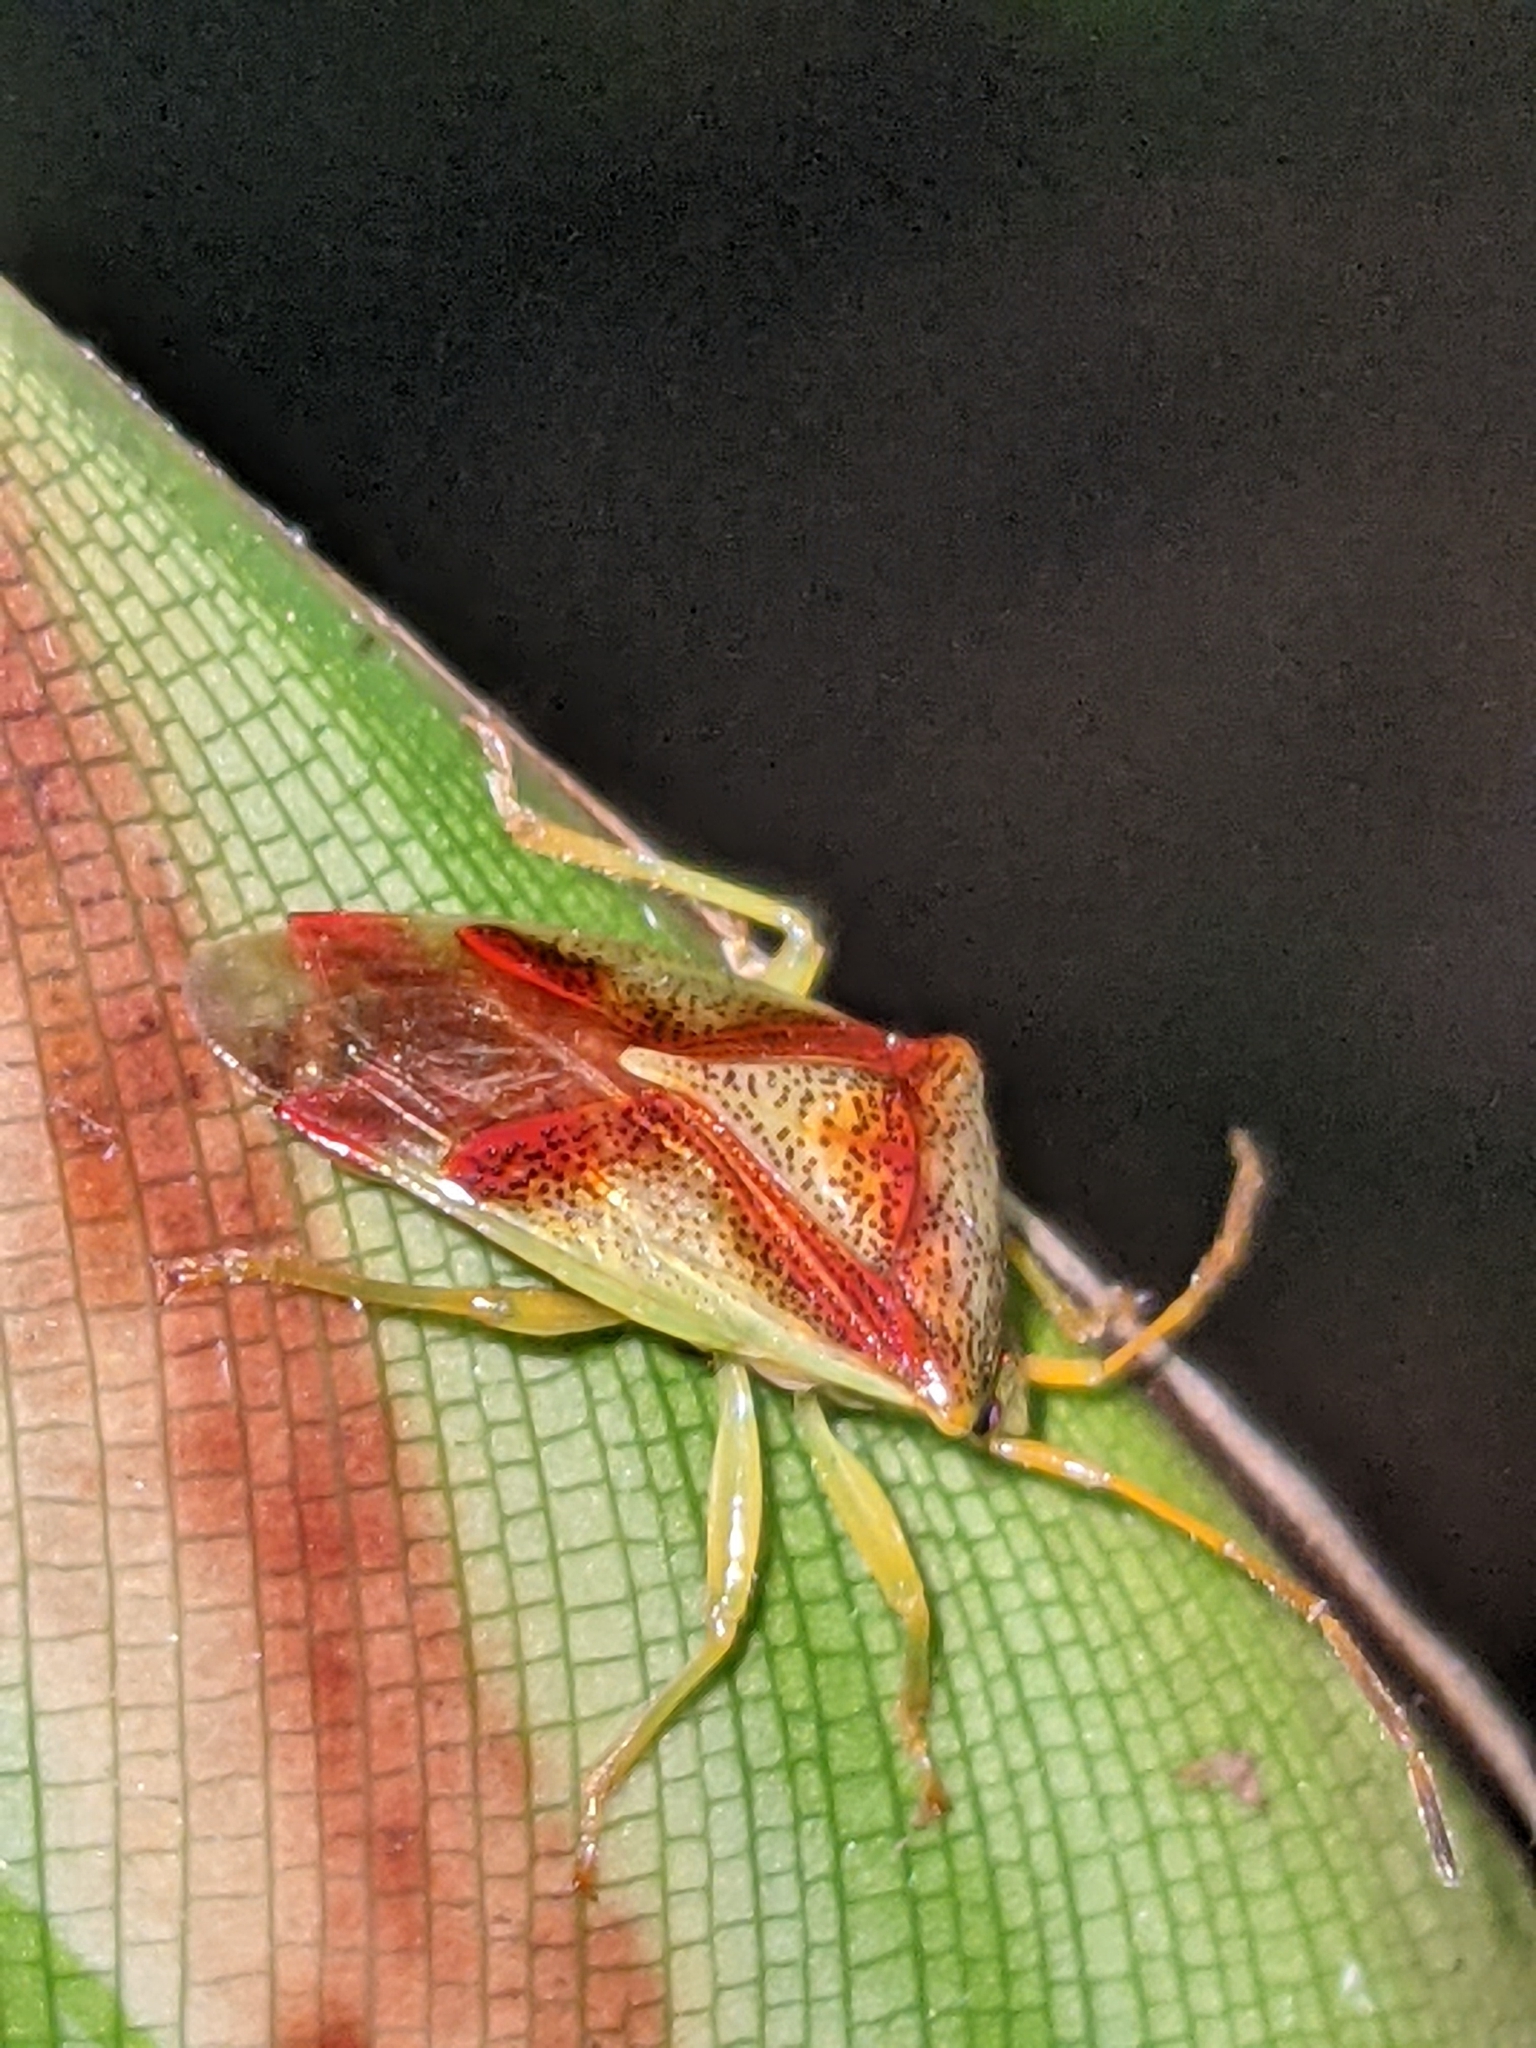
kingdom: Animalia
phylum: Arthropoda
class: Insecta
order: Hemiptera
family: Acanthosomatidae
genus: Elasmostethus
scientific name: Elasmostethus cruciatus
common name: Red-cross shield bug
